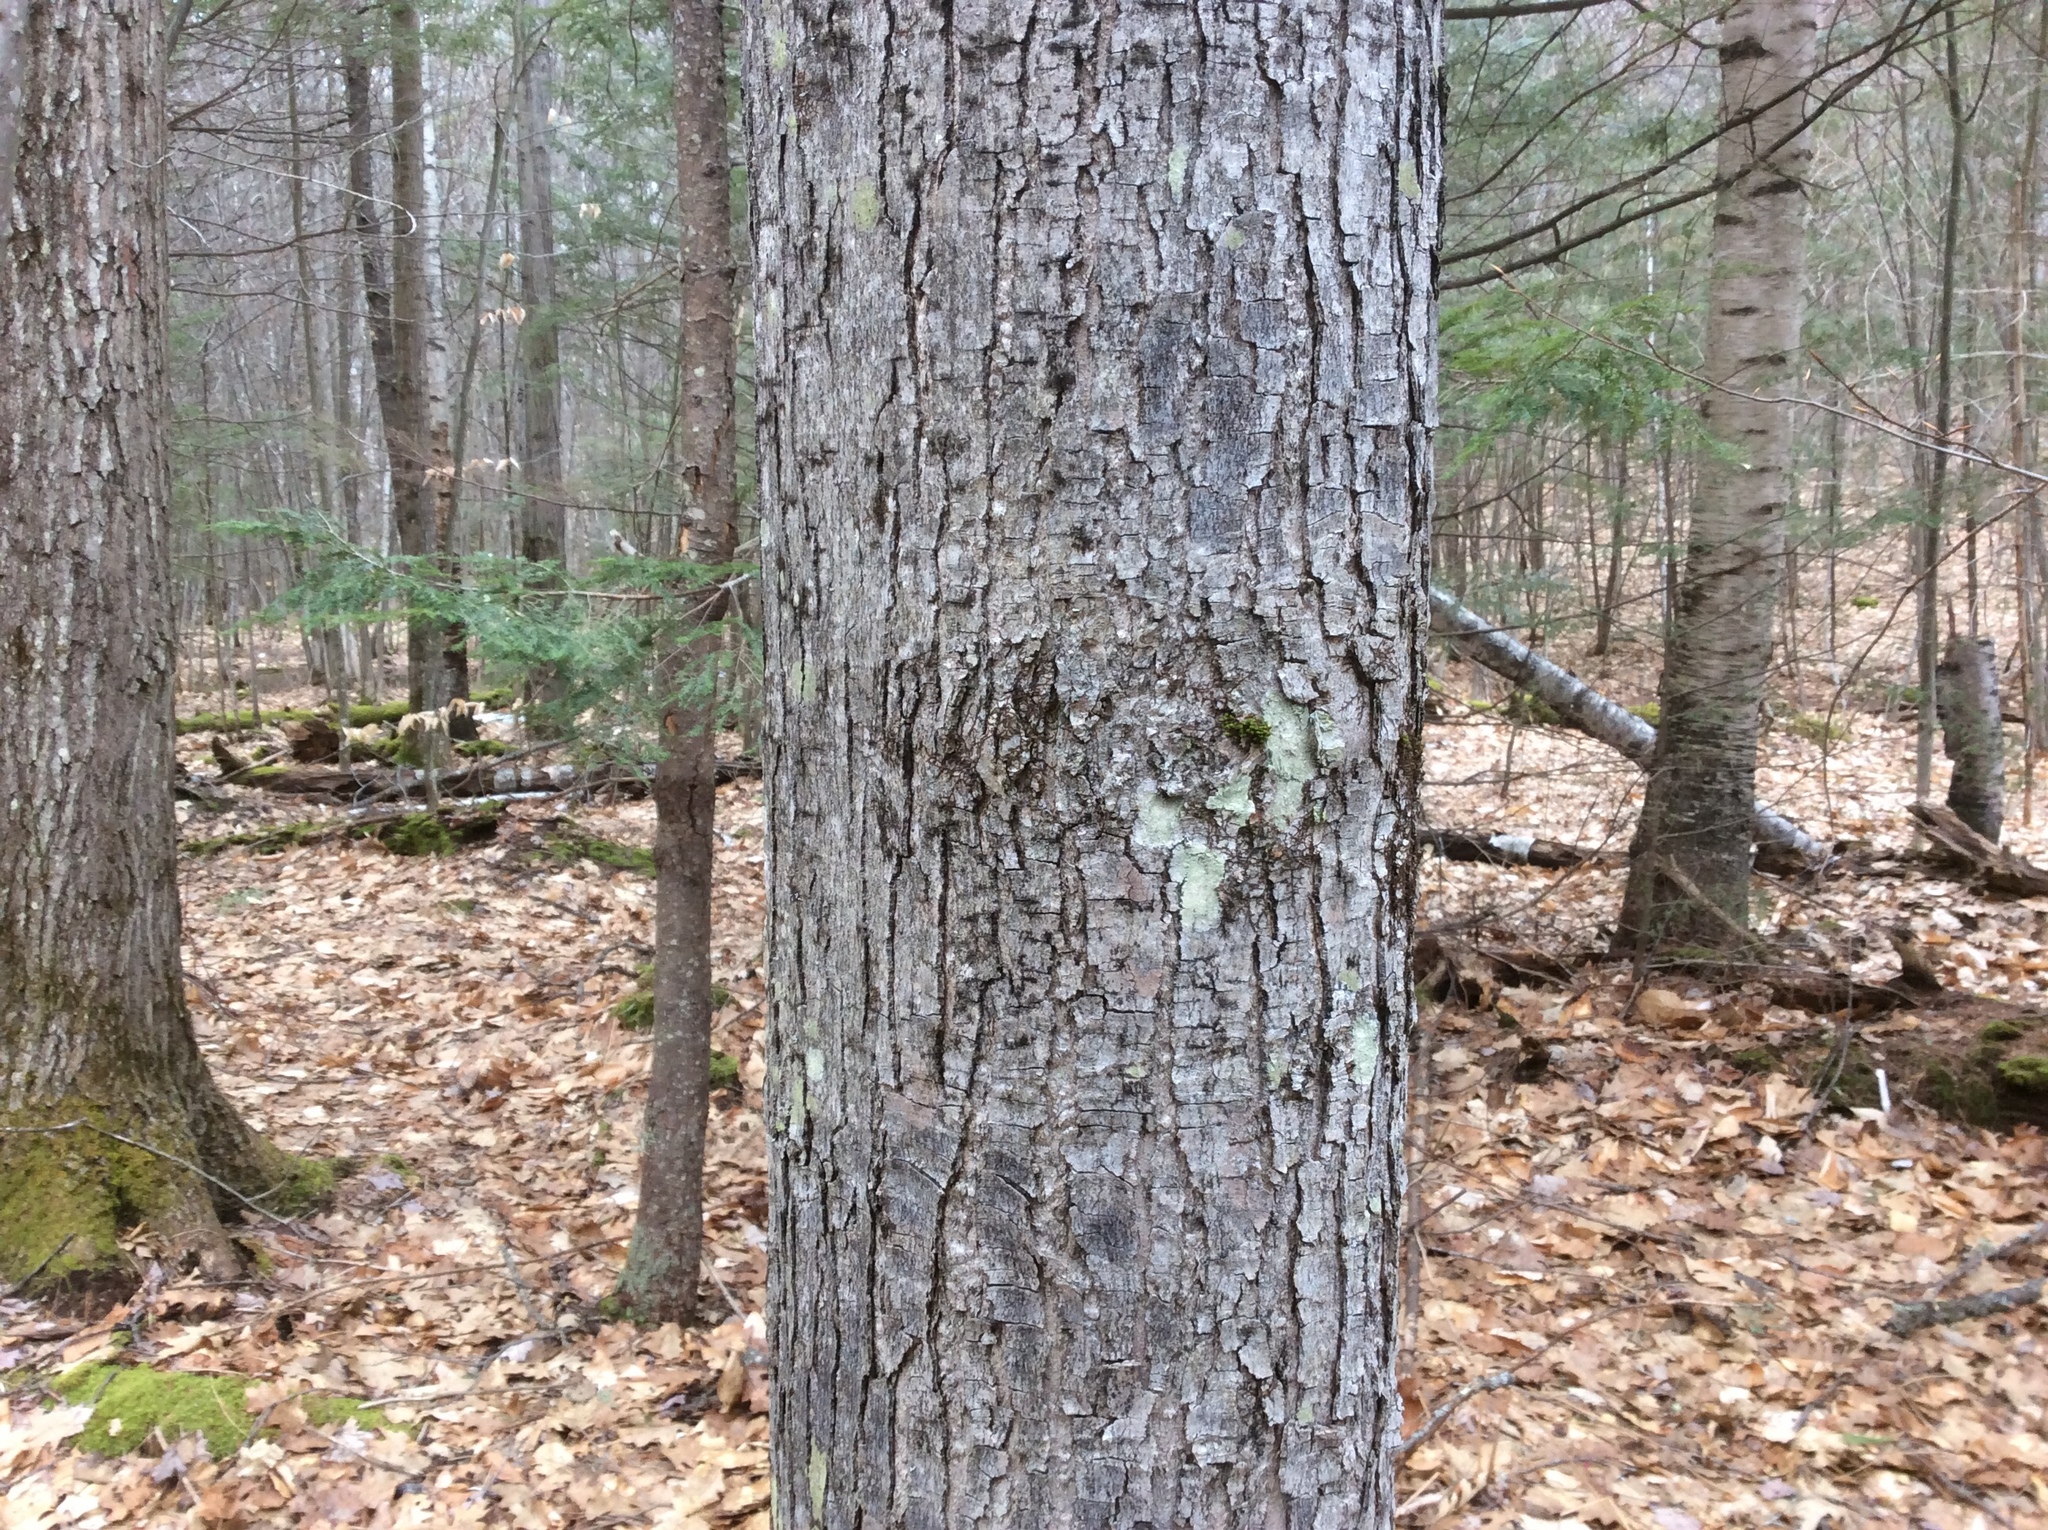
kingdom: Plantae
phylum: Tracheophyta
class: Magnoliopsida
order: Sapindales
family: Sapindaceae
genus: Acer
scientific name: Acer rubrum
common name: Red maple
